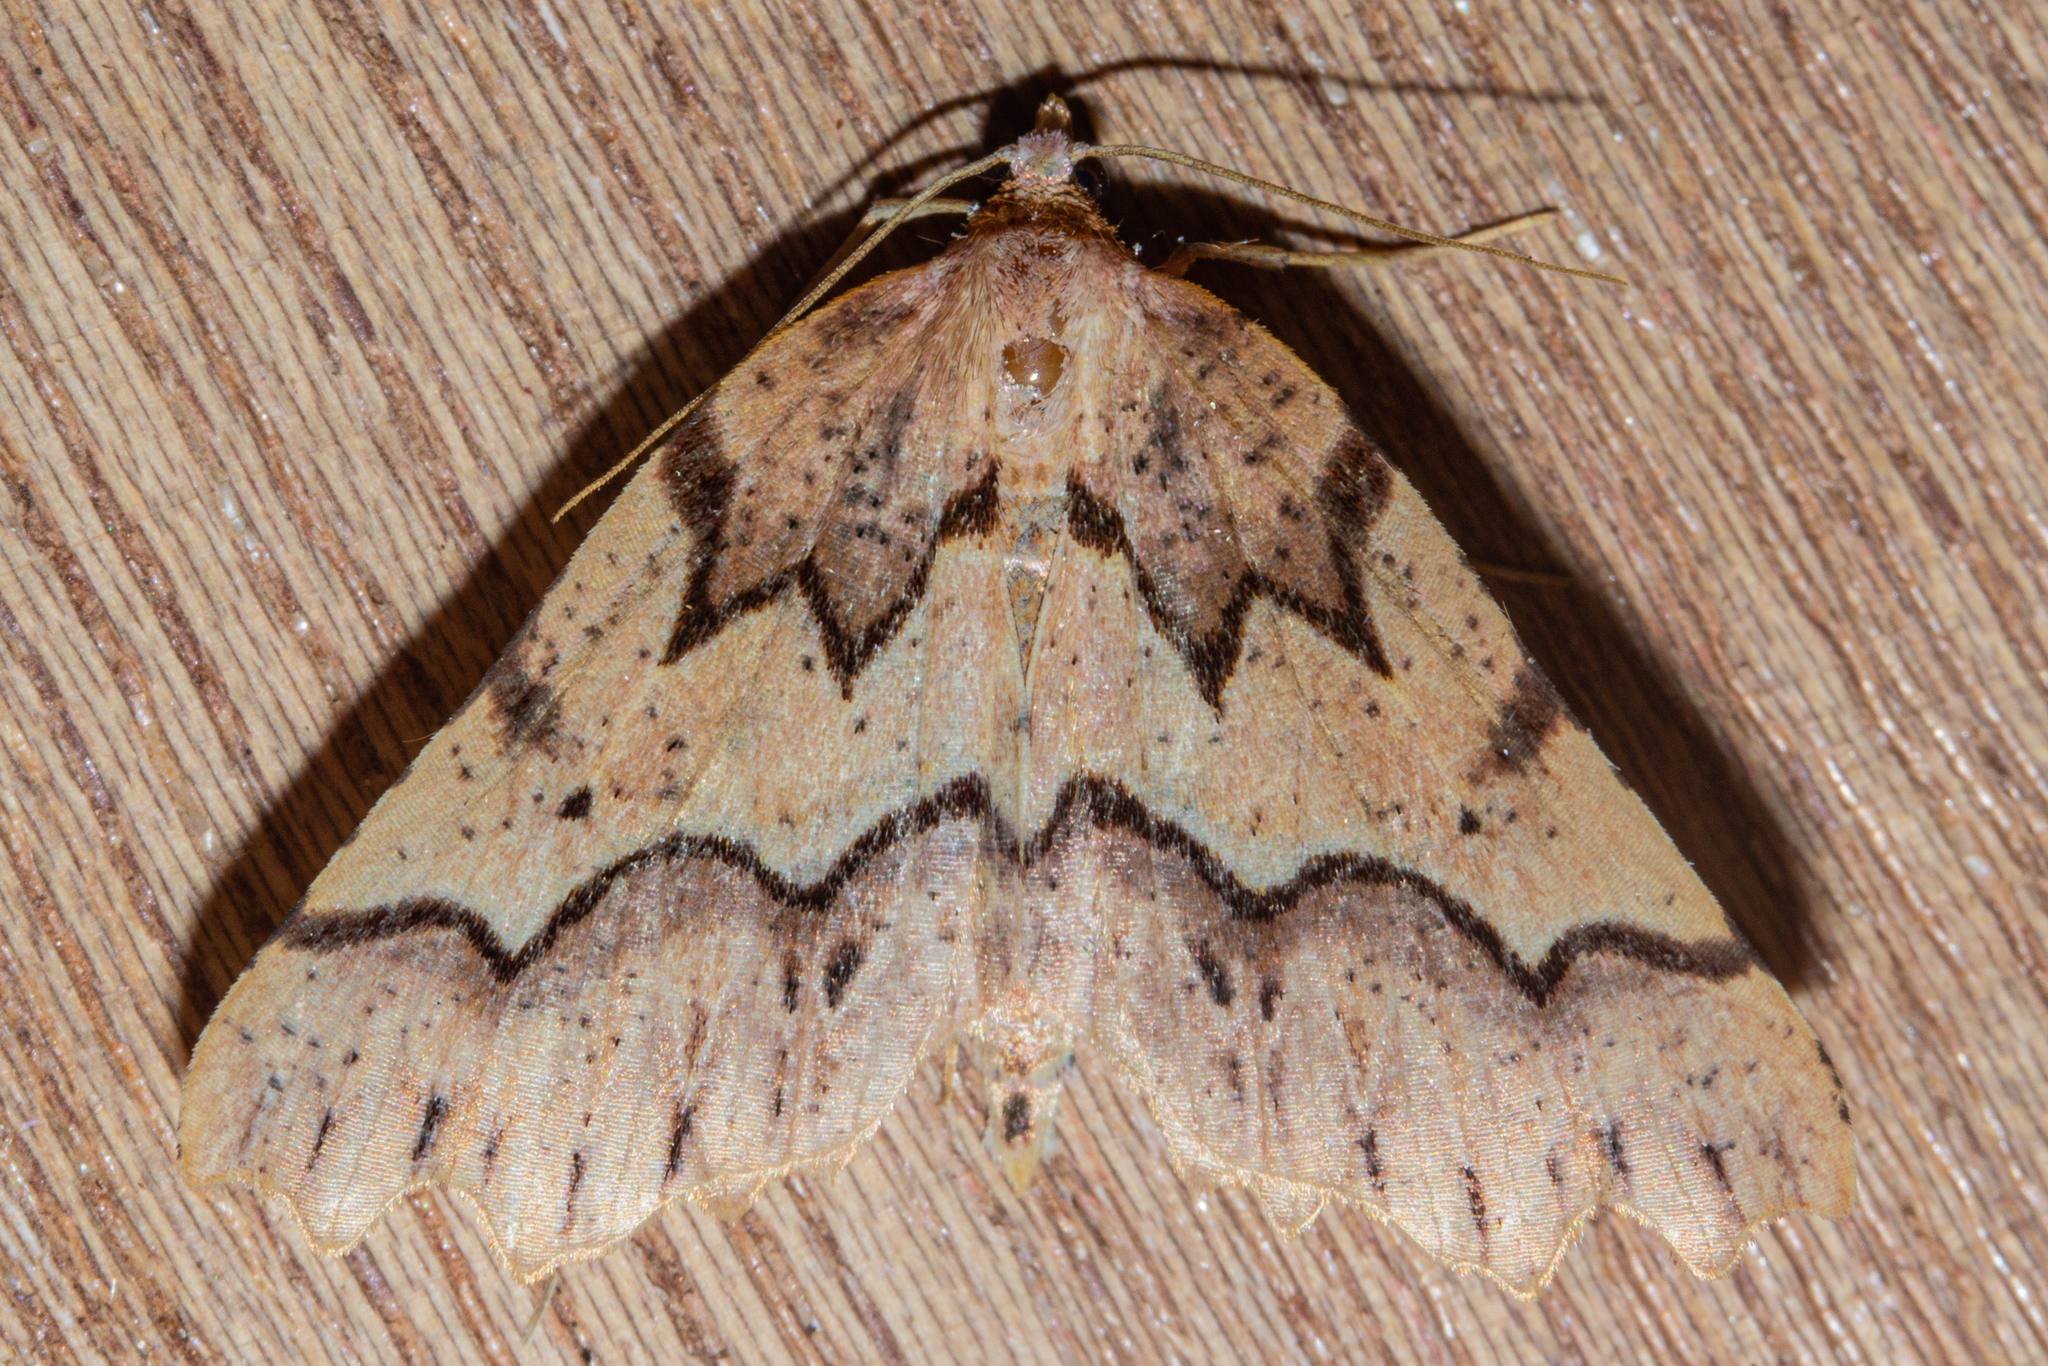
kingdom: Animalia
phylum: Arthropoda
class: Insecta
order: Lepidoptera
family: Geometridae
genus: Ischalis
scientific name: Ischalis fortinata
